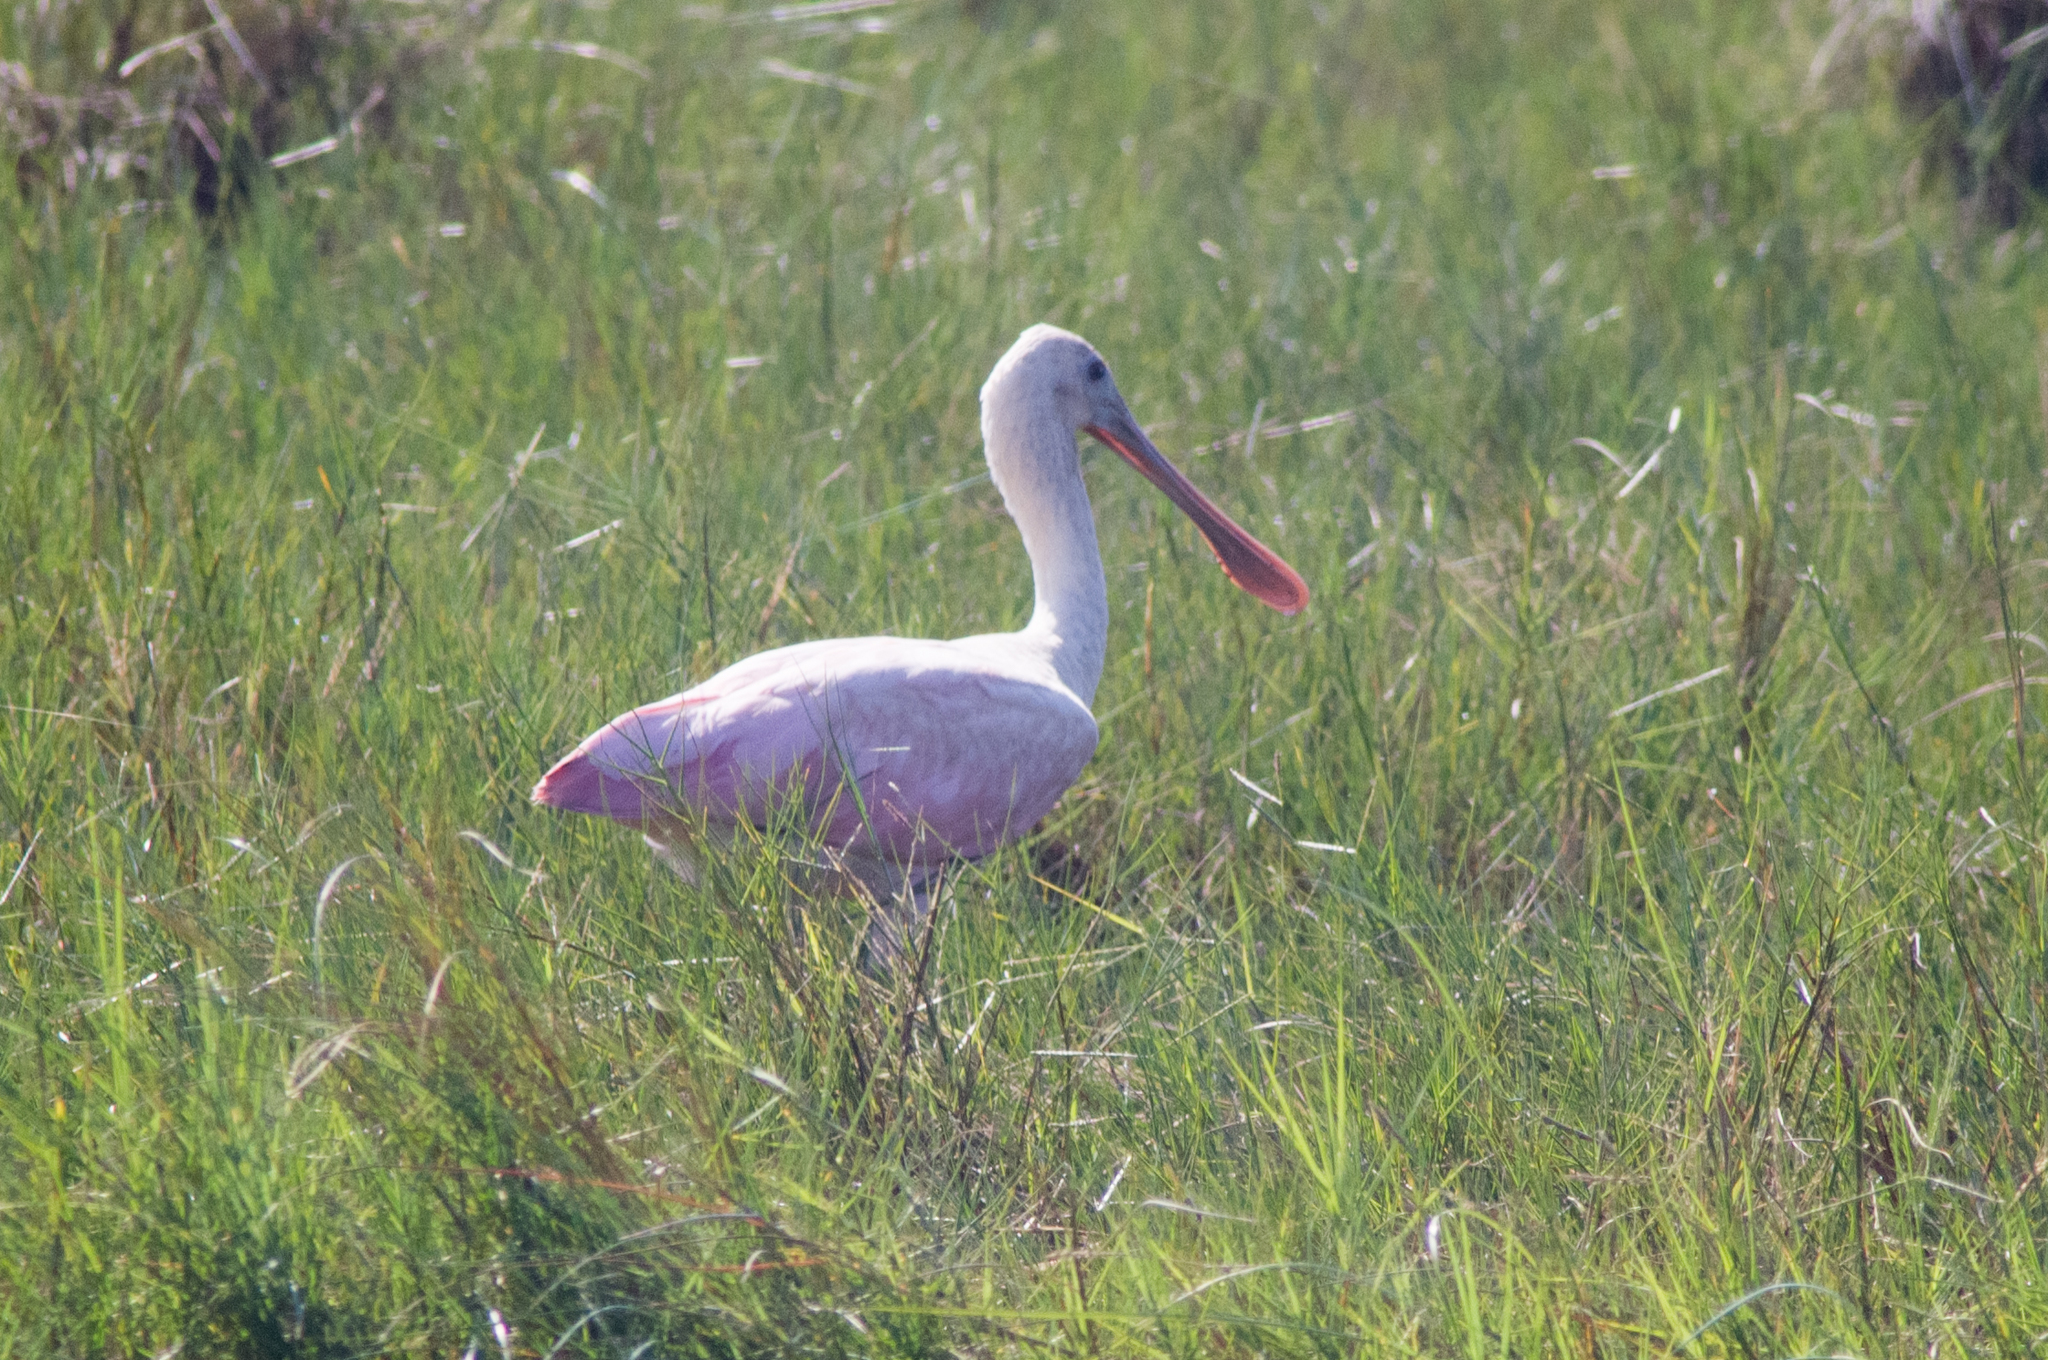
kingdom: Animalia
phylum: Chordata
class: Aves
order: Pelecaniformes
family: Threskiornithidae
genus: Platalea
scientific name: Platalea ajaja
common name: Roseate spoonbill
